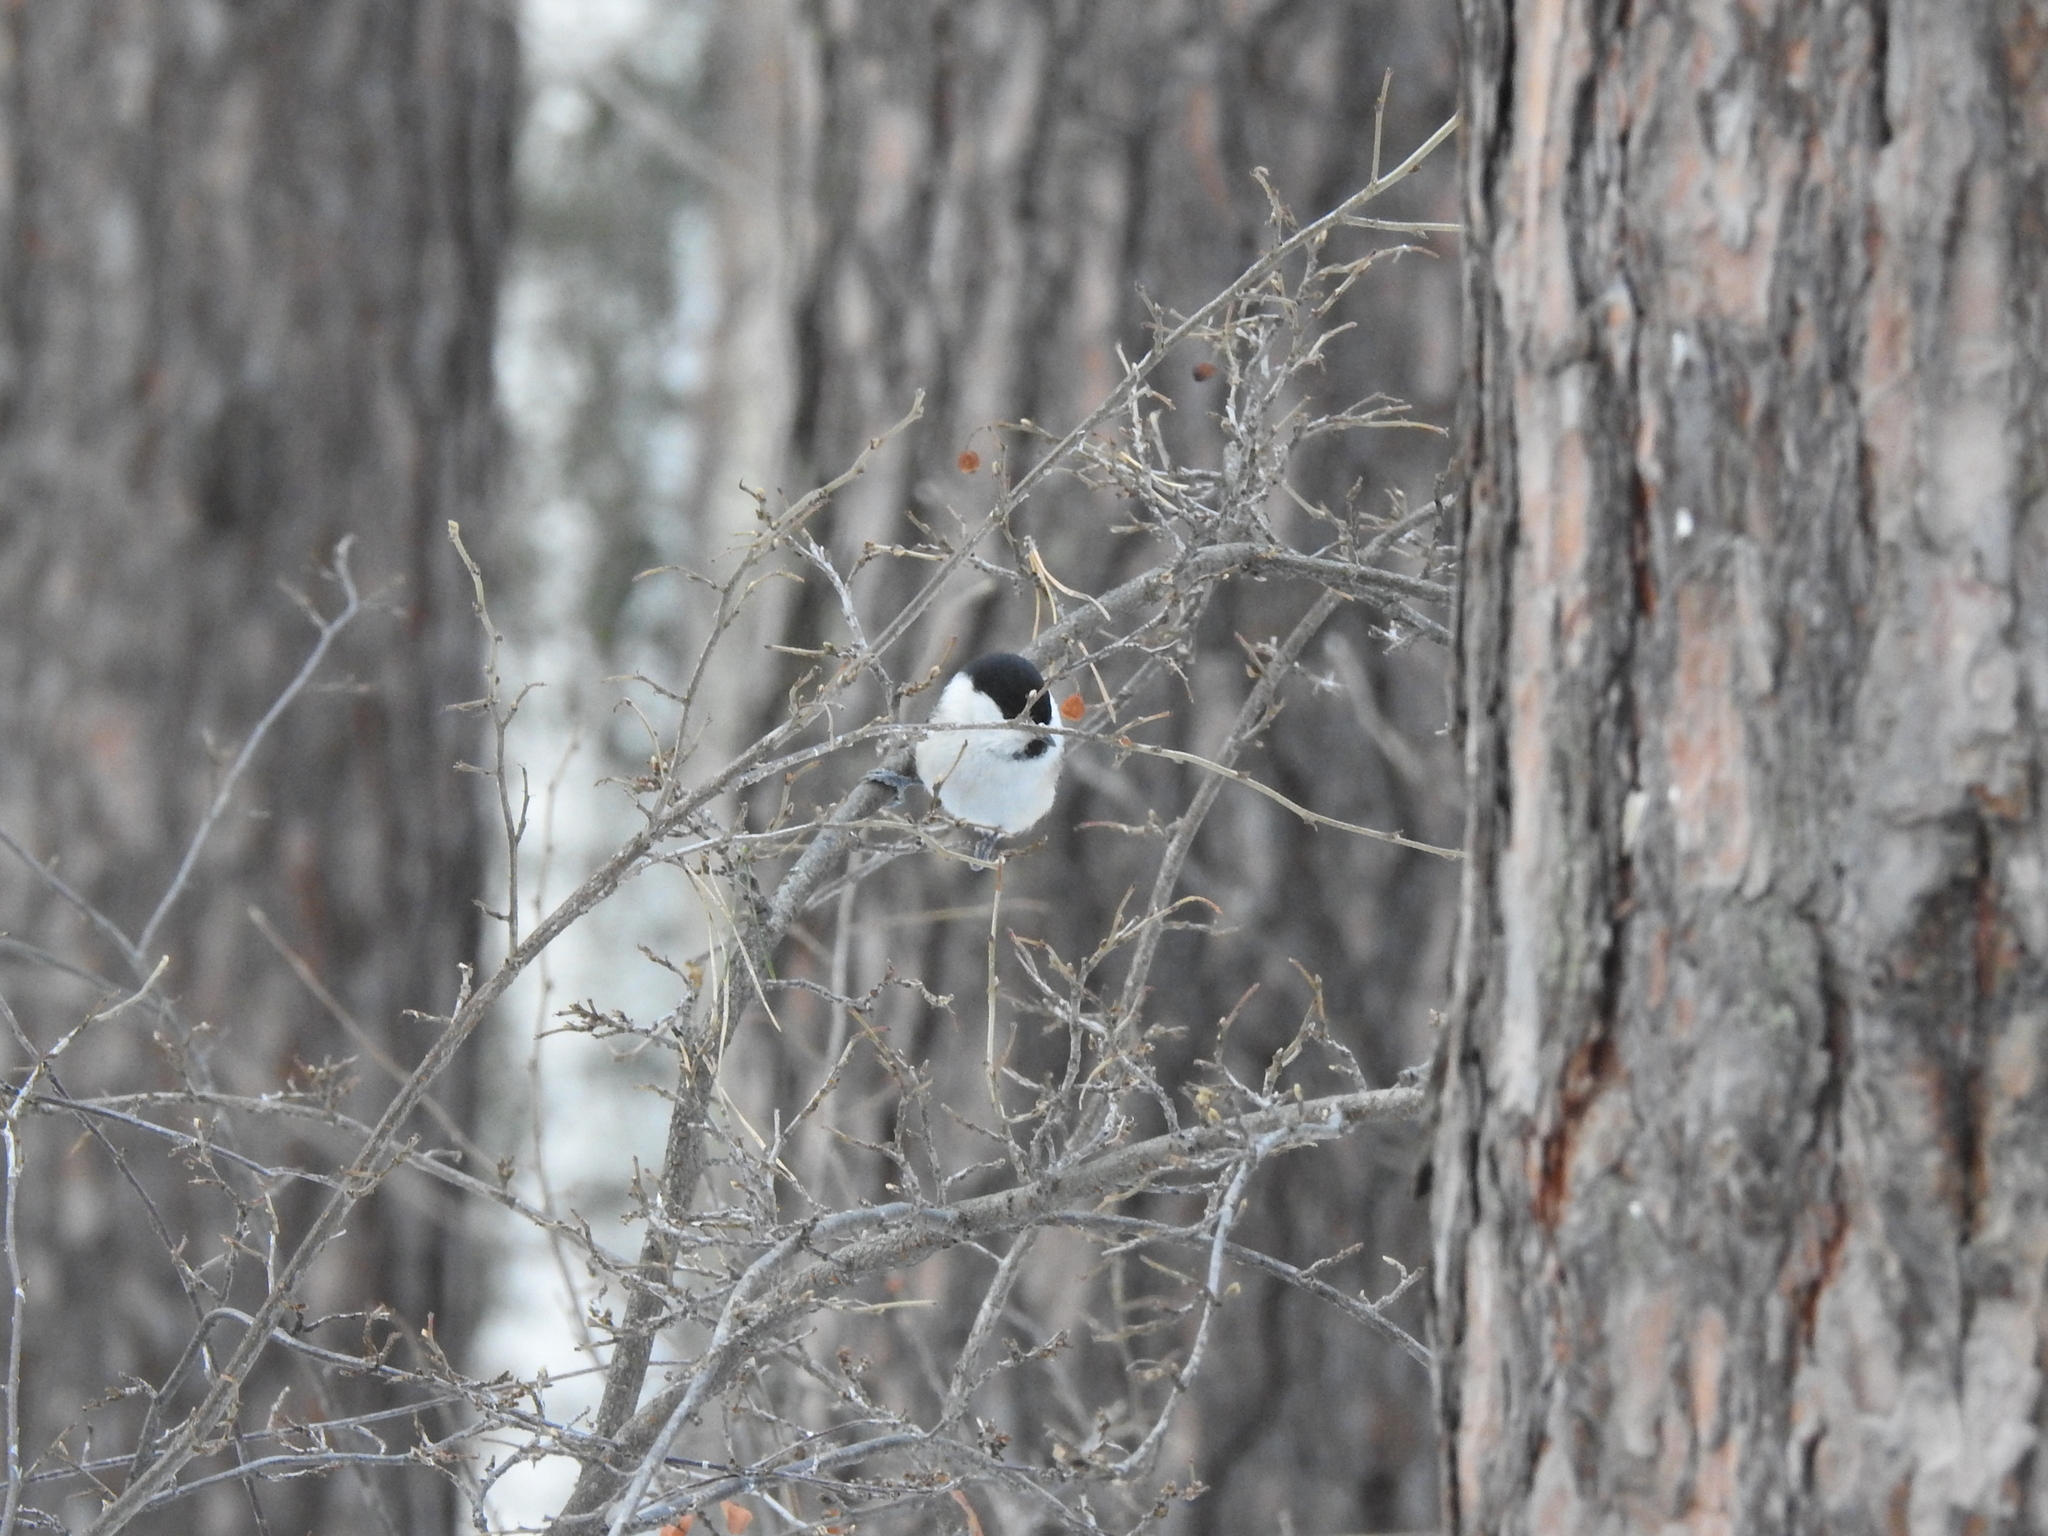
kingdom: Animalia
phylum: Chordata
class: Aves
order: Passeriformes
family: Paridae
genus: Poecile
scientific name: Poecile montanus
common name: Willow tit
